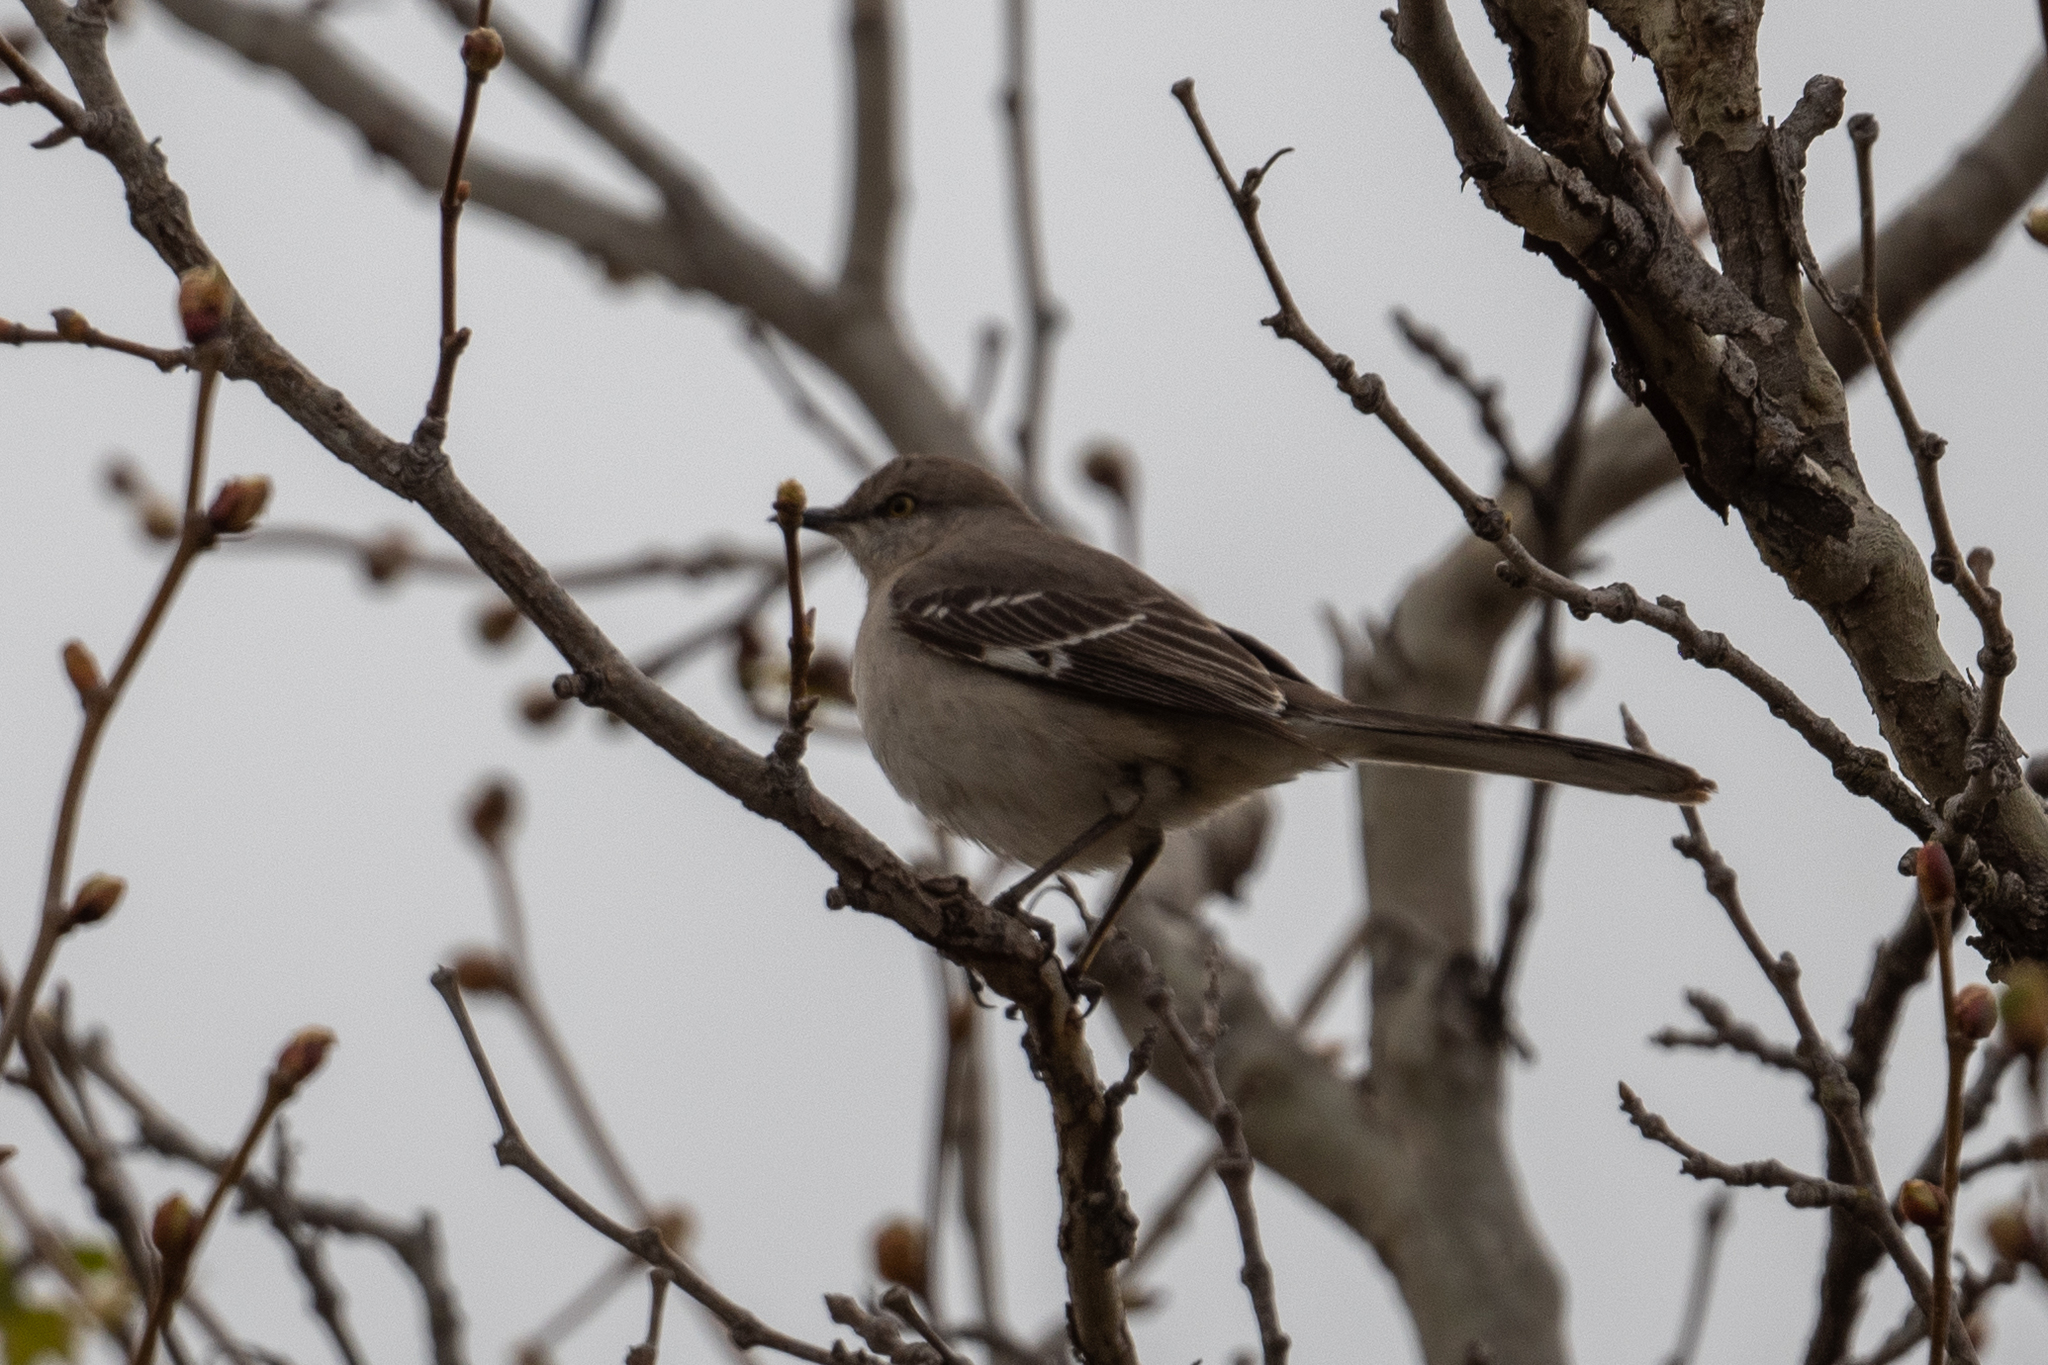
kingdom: Animalia
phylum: Chordata
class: Aves
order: Passeriformes
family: Mimidae
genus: Mimus
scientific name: Mimus polyglottos
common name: Northern mockingbird
